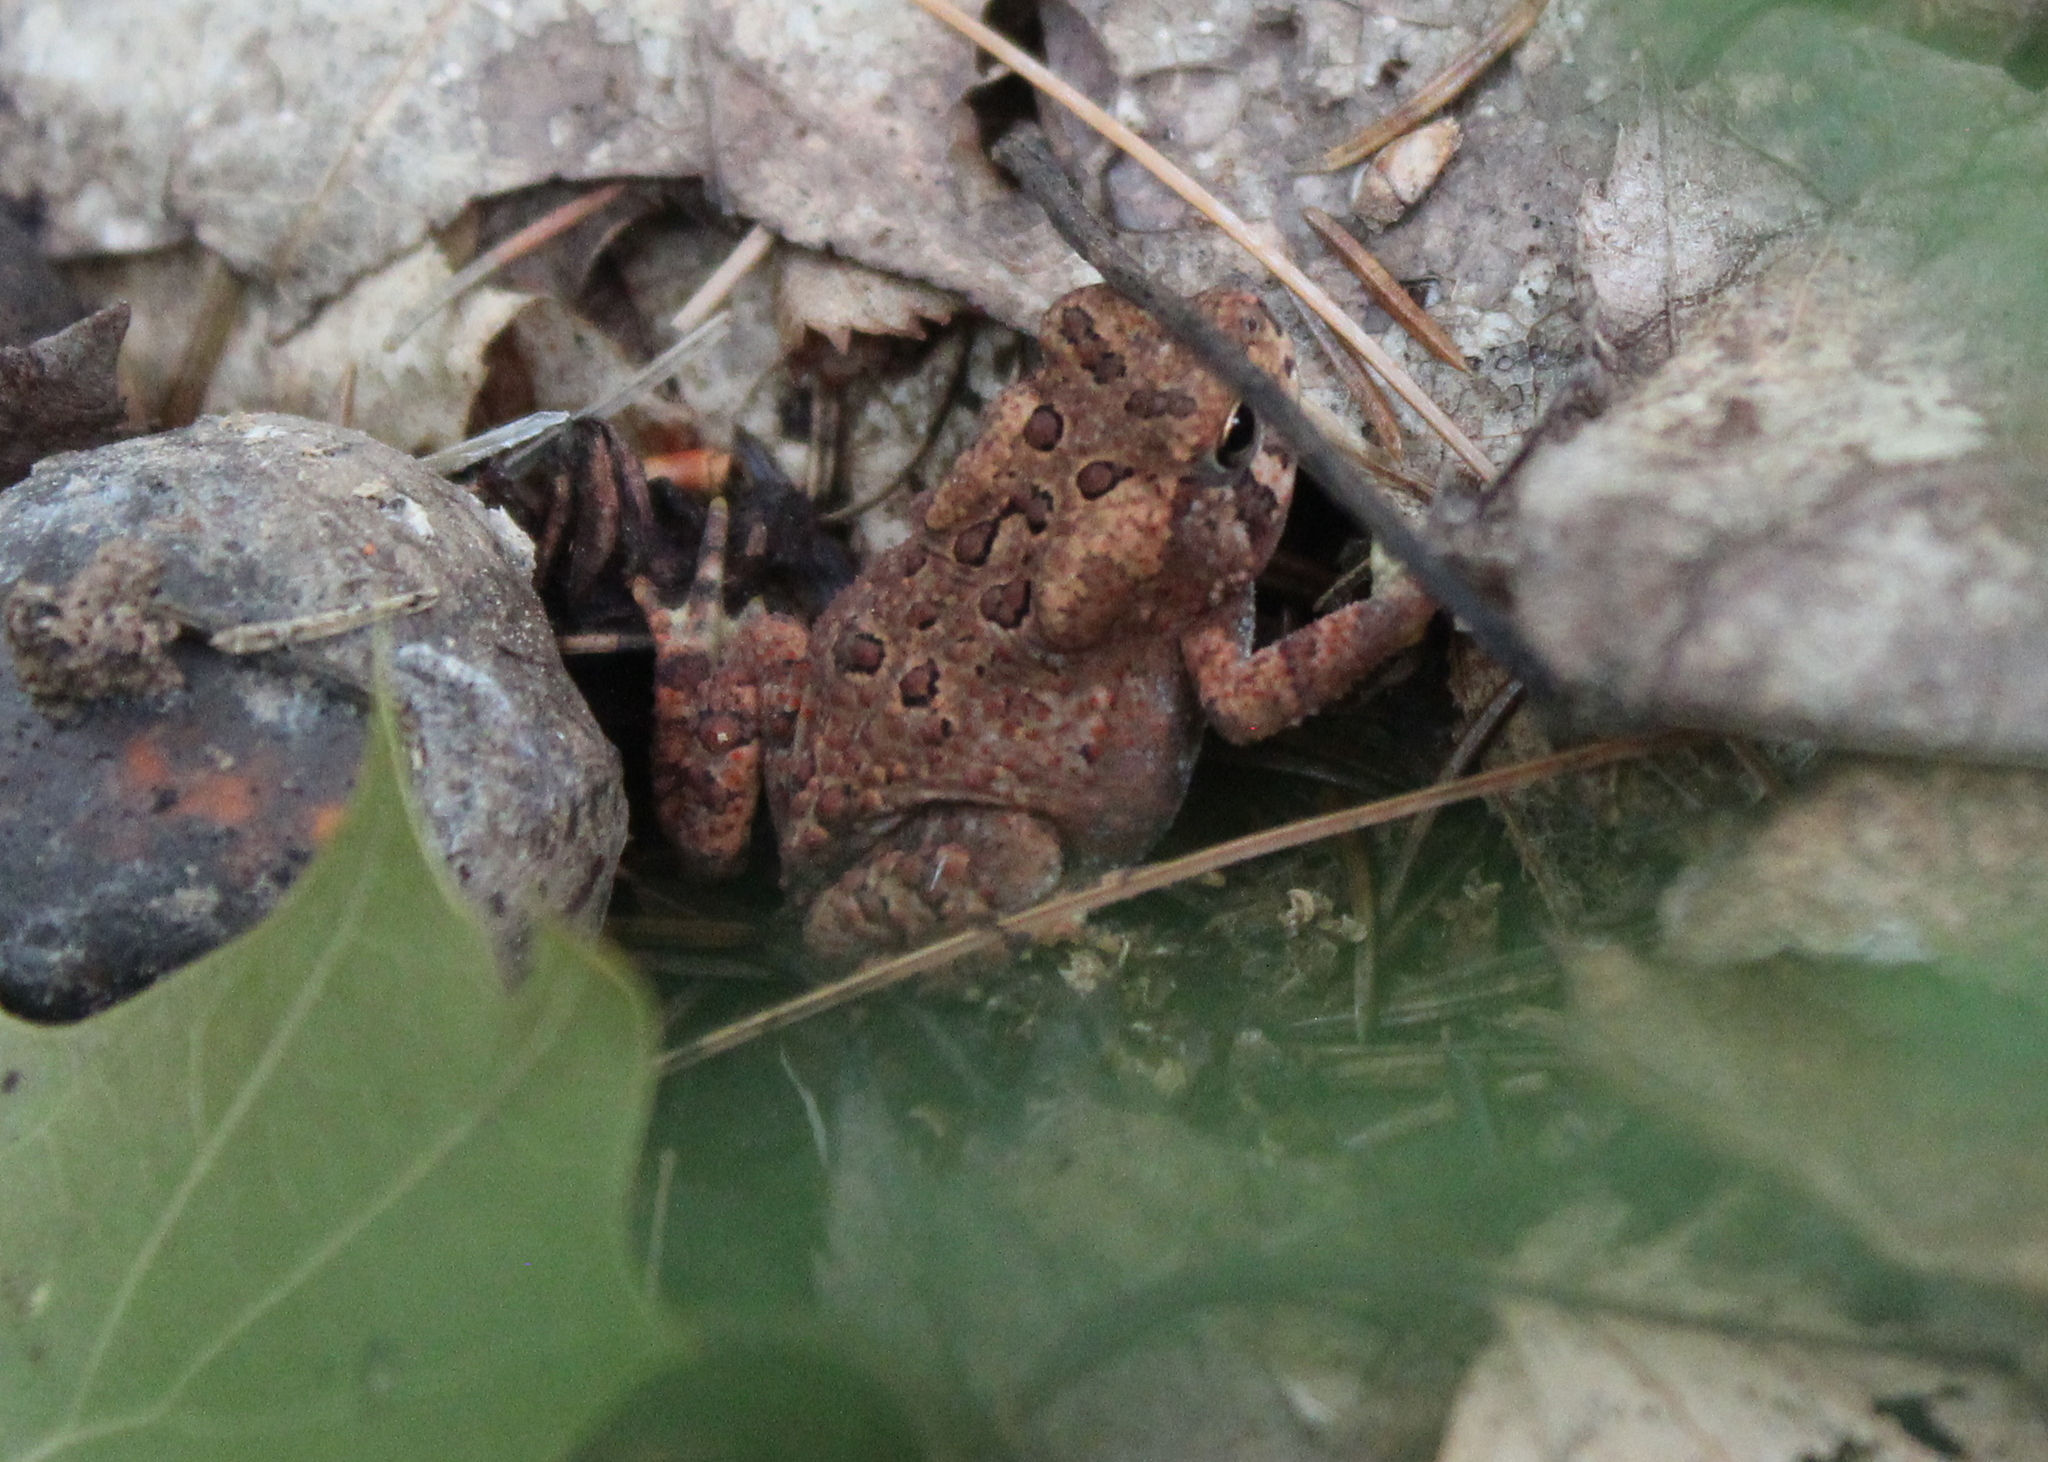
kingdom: Animalia
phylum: Chordata
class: Amphibia
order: Anura
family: Bufonidae
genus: Anaxyrus
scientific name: Anaxyrus americanus
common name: American toad
